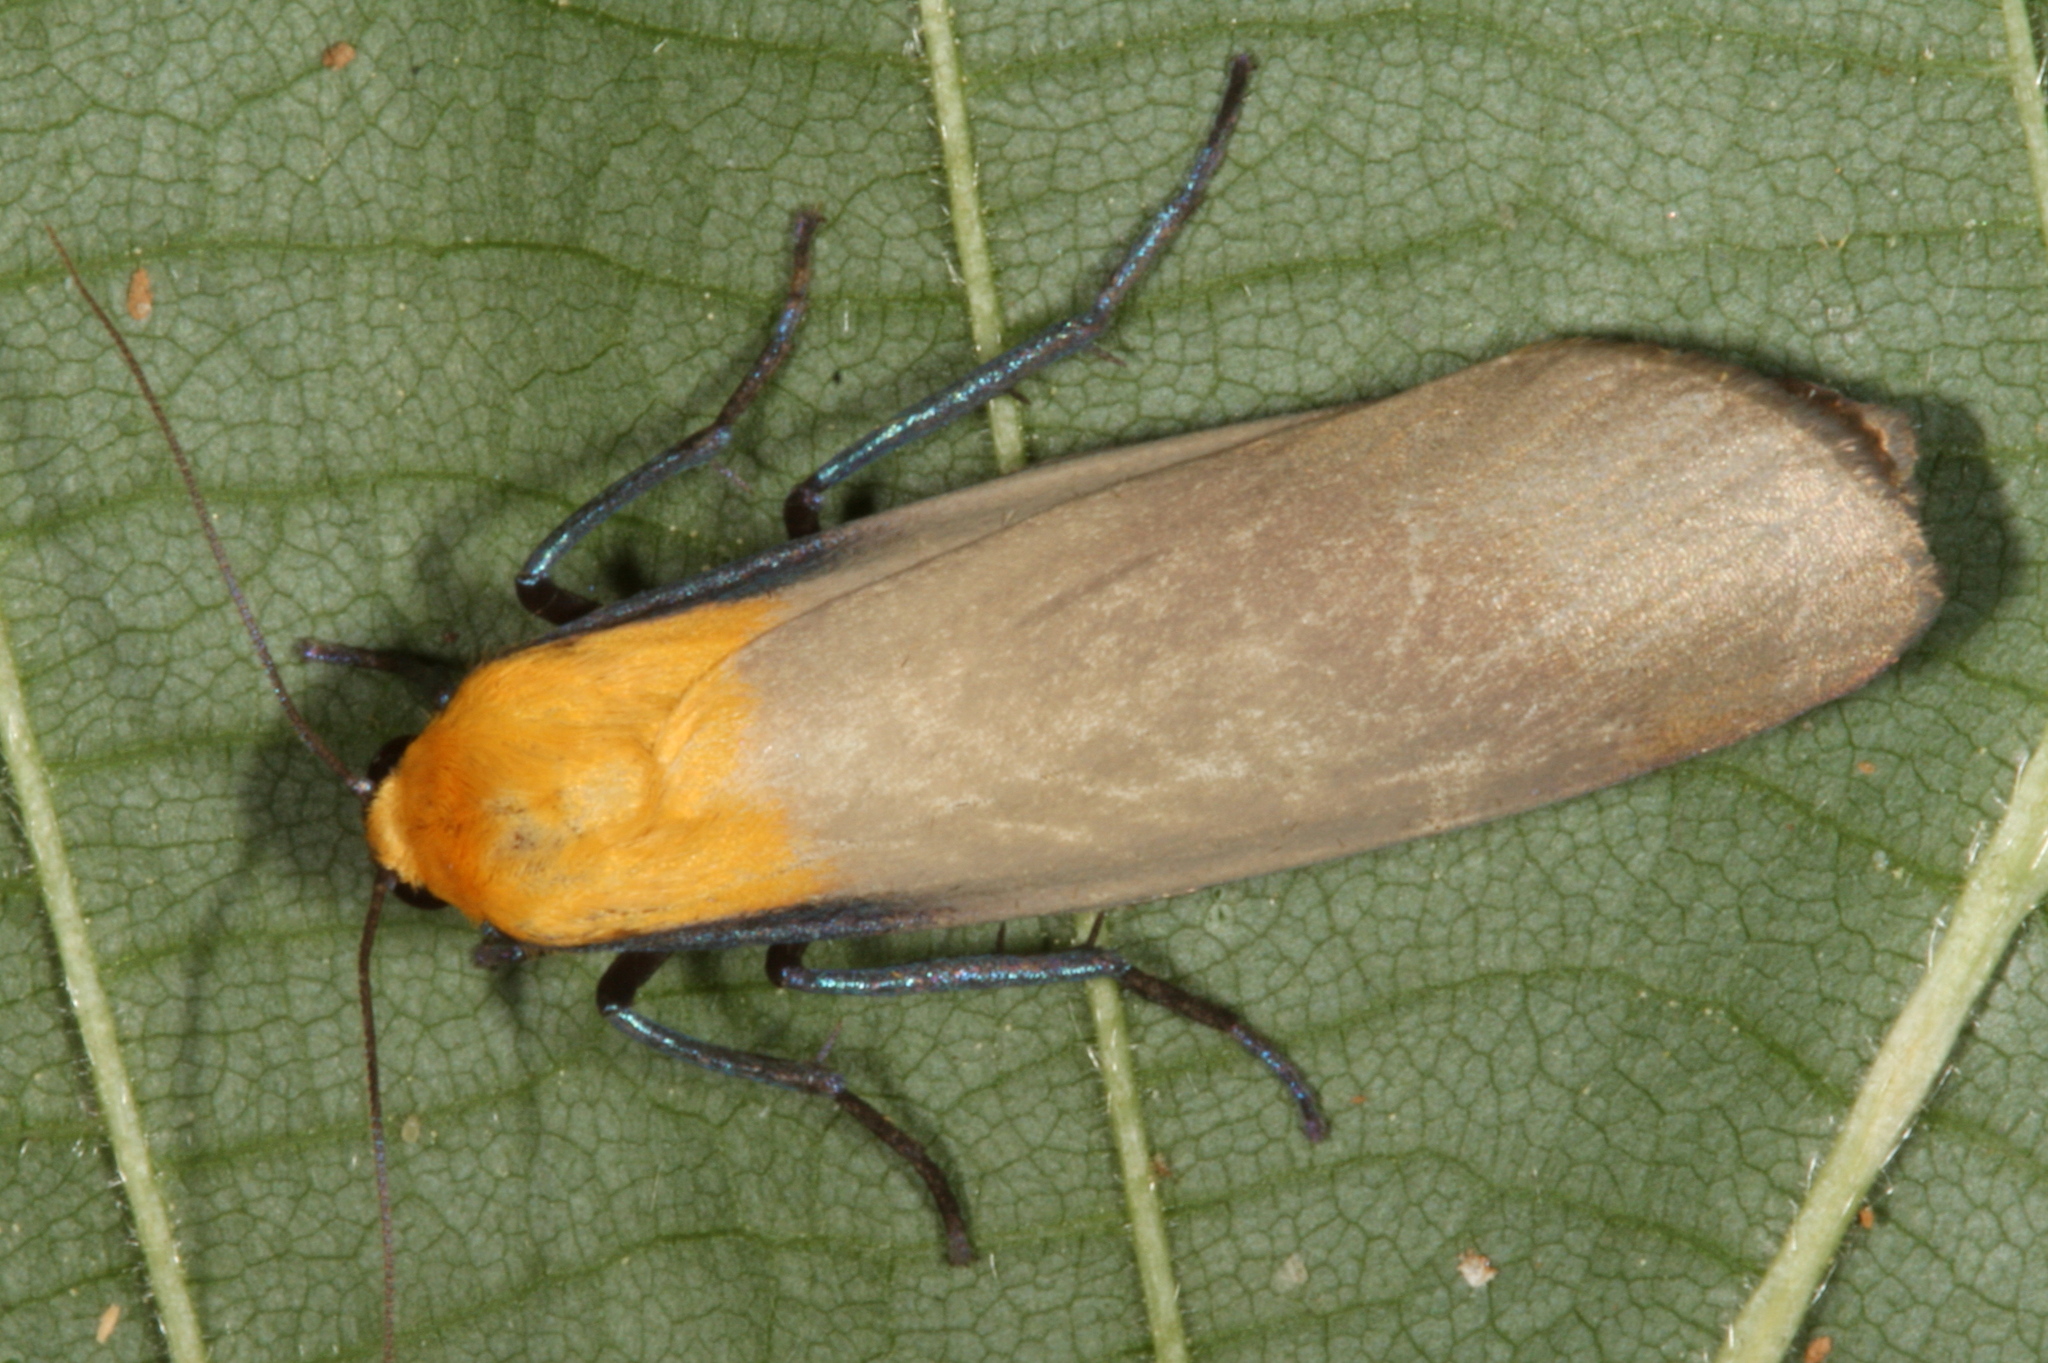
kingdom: Animalia
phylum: Arthropoda
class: Insecta
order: Lepidoptera
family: Erebidae
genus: Lithosia
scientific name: Lithosia quadra
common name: Four-spotted footman
